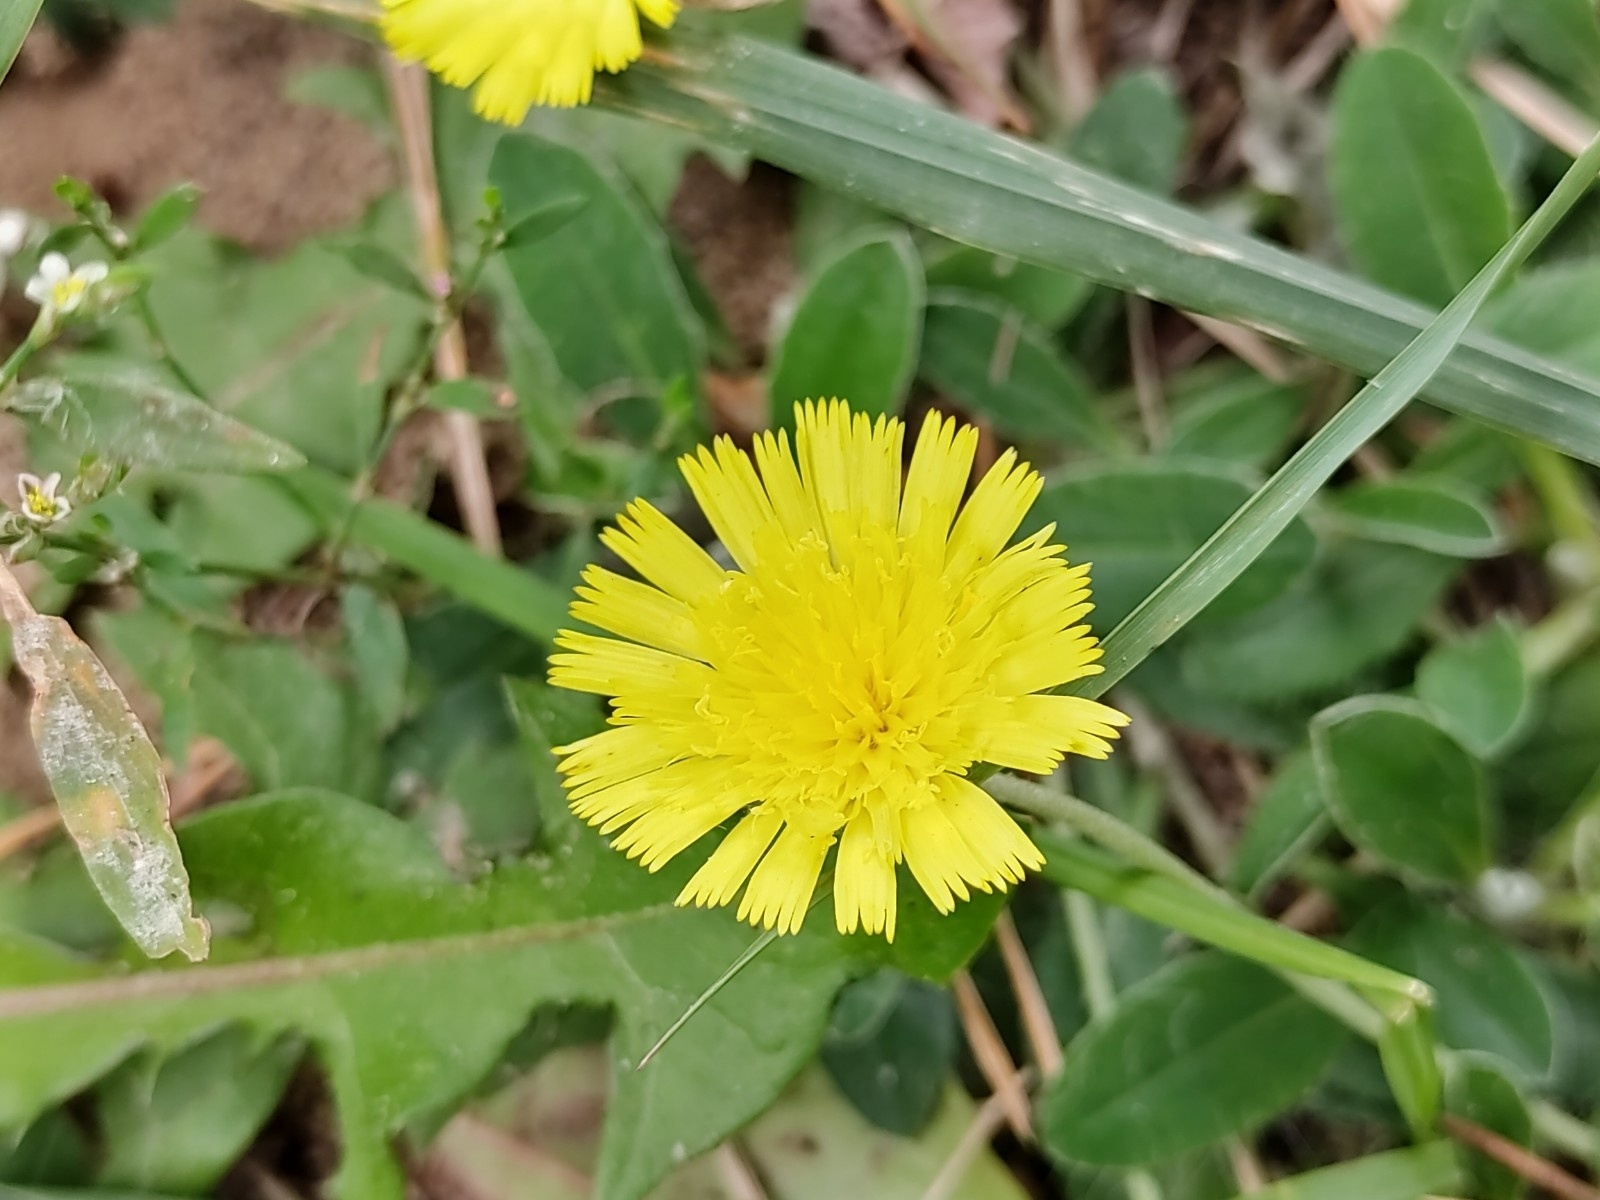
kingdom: Plantae
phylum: Tracheophyta
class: Magnoliopsida
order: Asterales
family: Asteraceae
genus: Pilosella
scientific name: Pilosella officinarum
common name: Mouse-ear hawkweed
